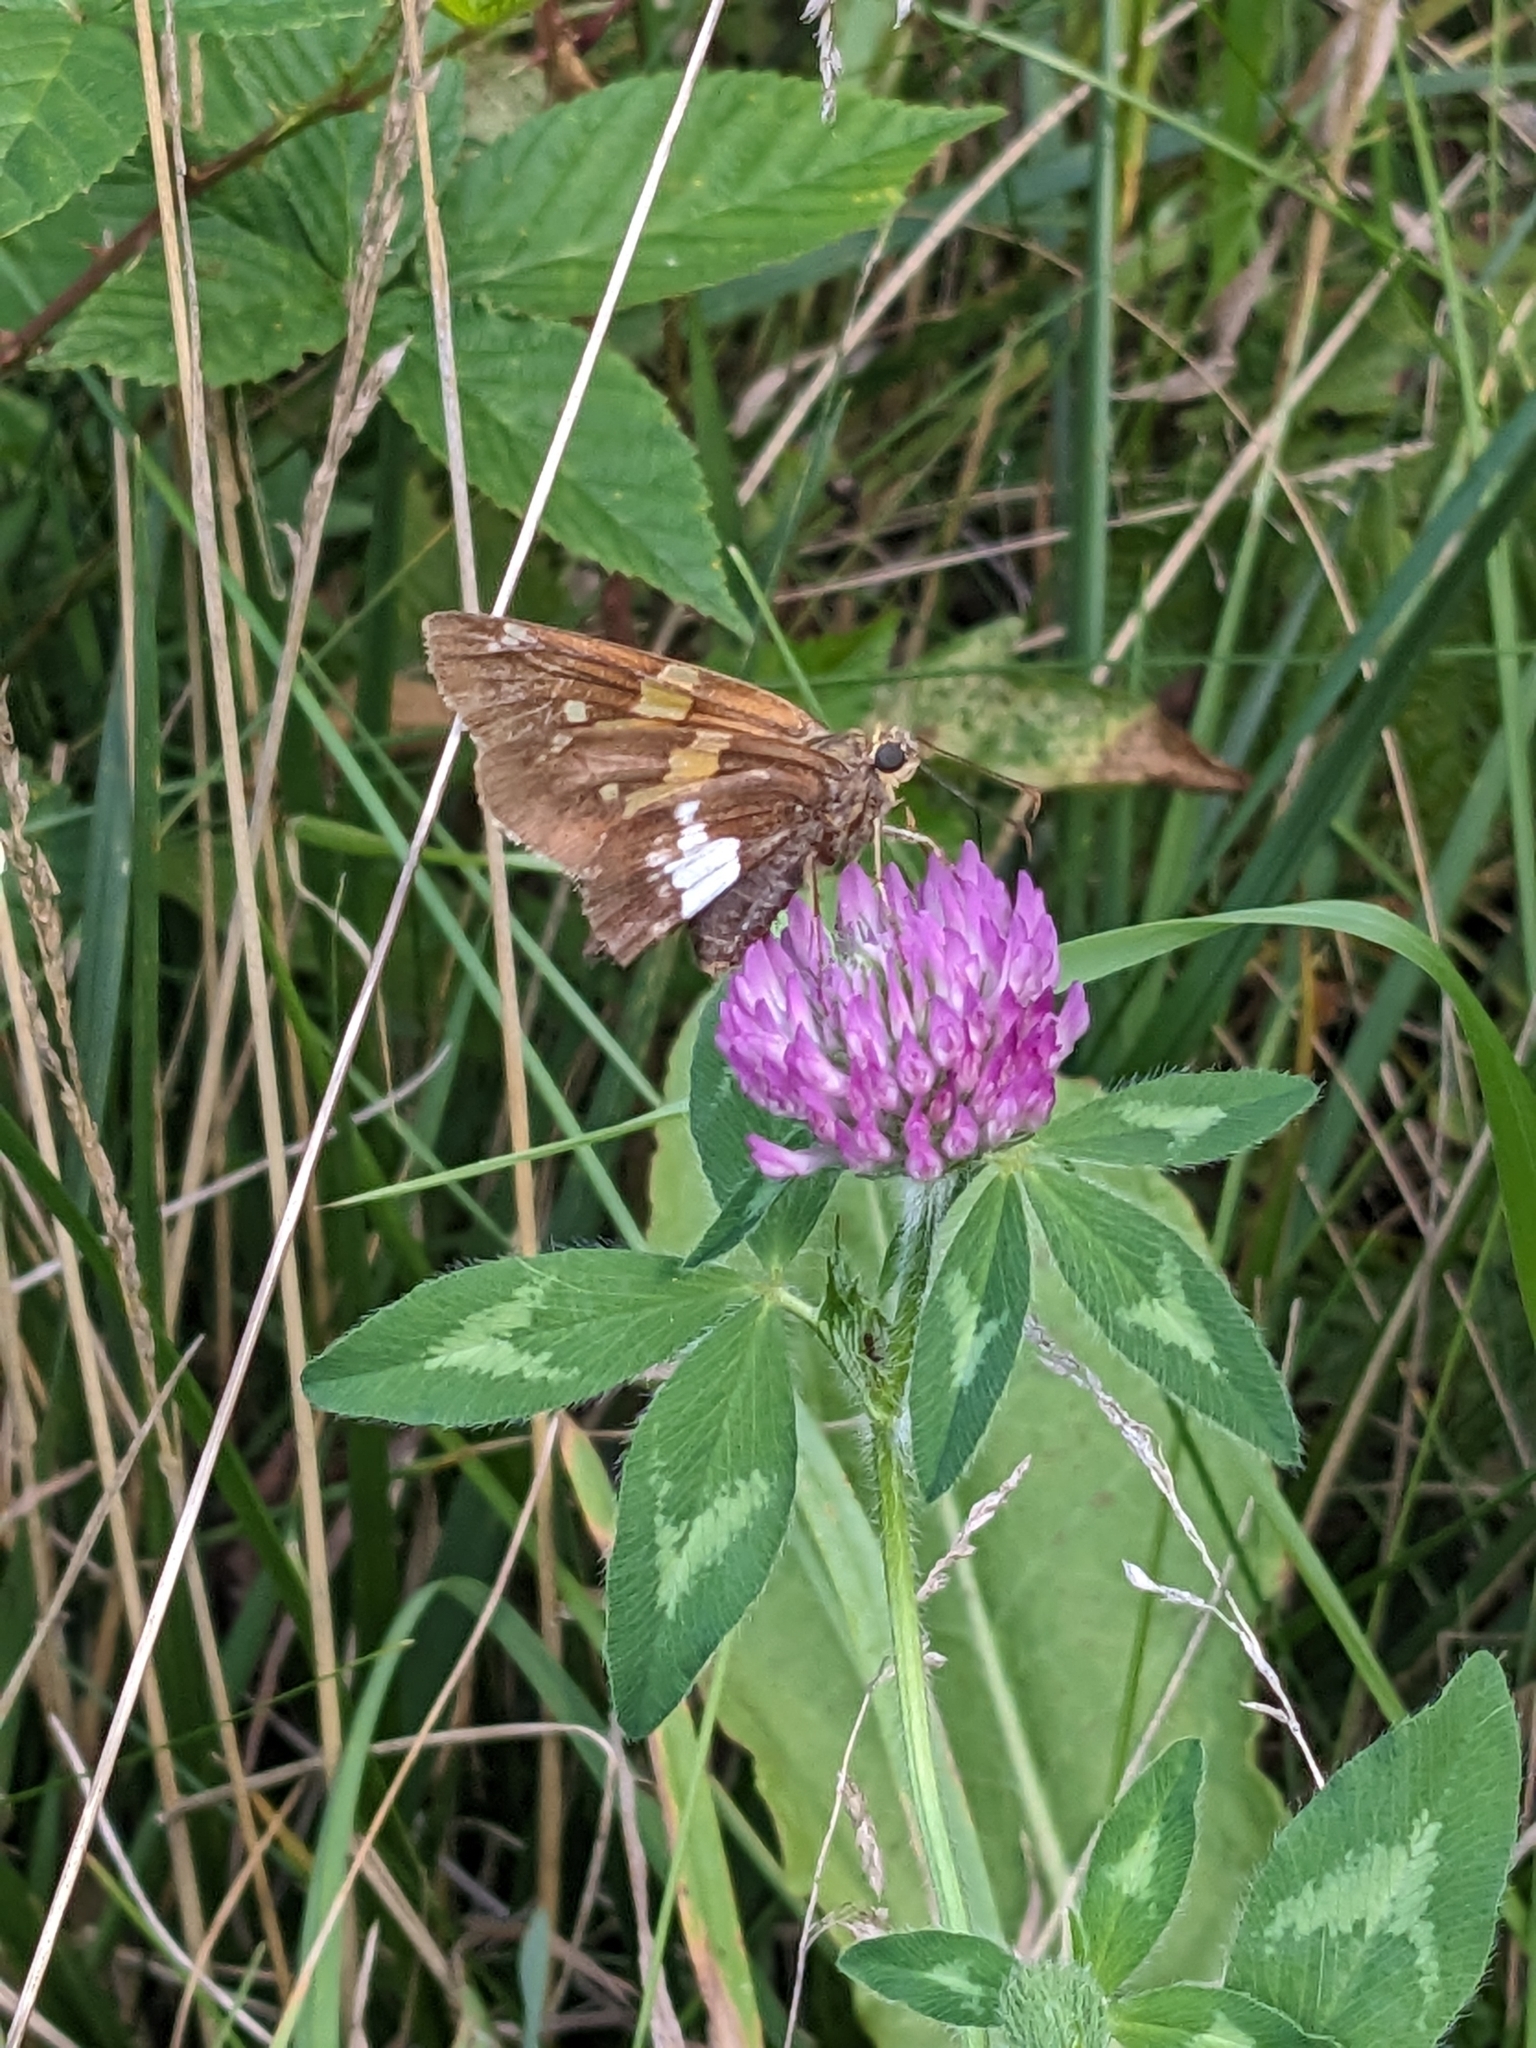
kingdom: Animalia
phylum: Arthropoda
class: Insecta
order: Lepidoptera
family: Hesperiidae
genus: Epargyreus
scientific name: Epargyreus clarus
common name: Silver-spotted skipper
